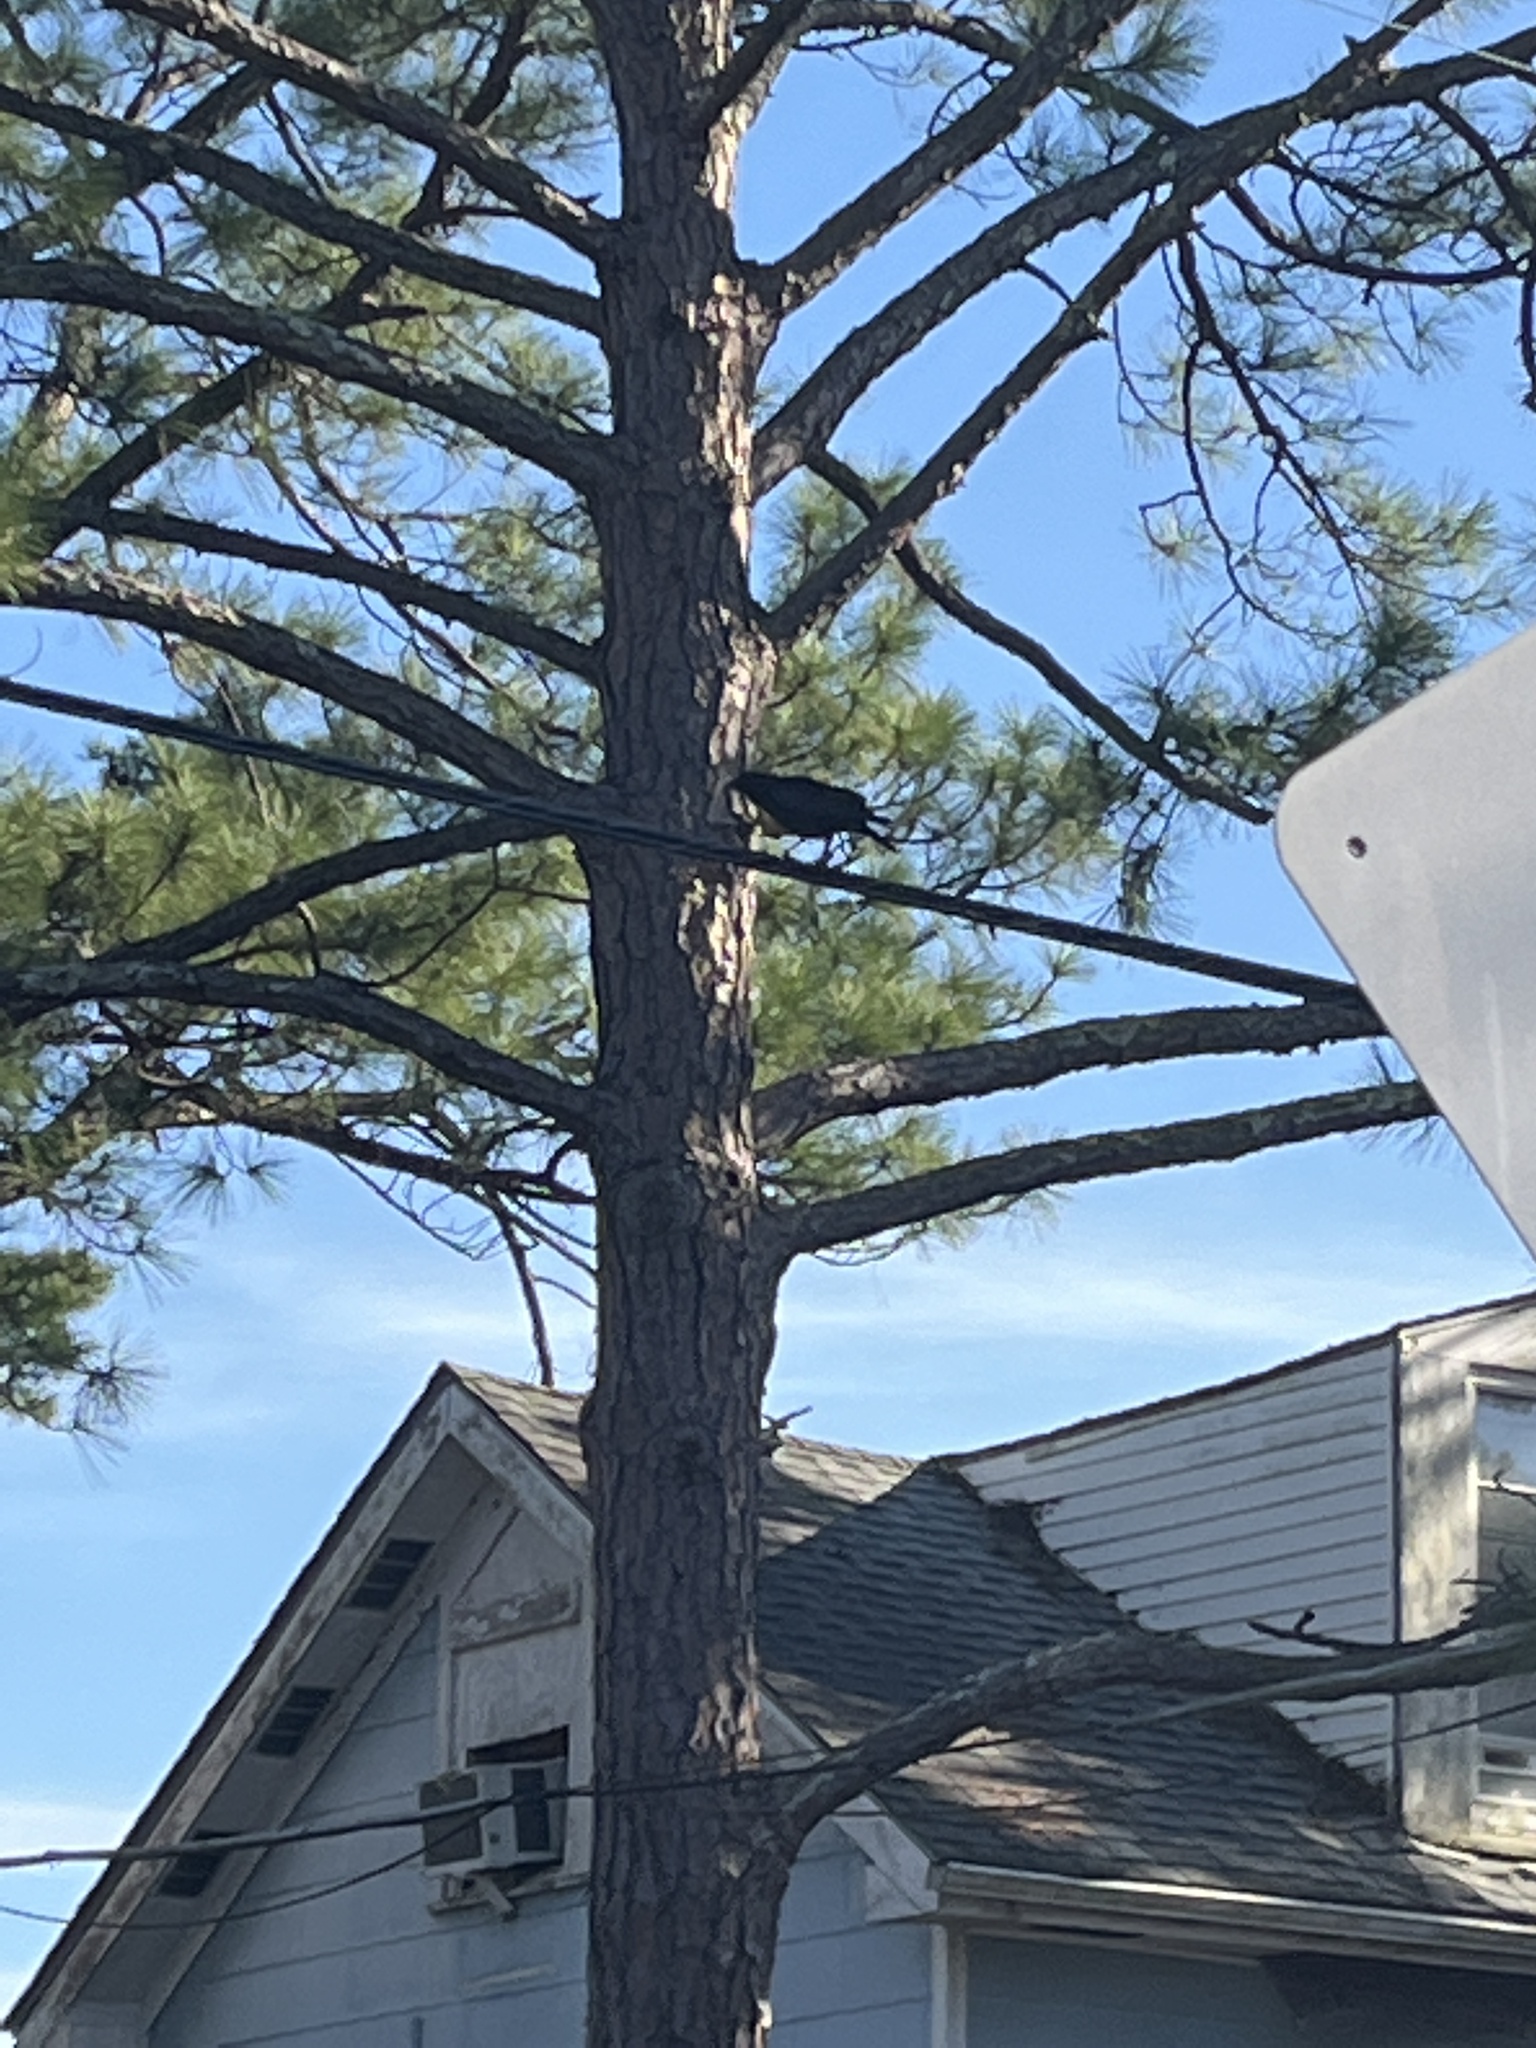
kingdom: Animalia
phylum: Chordata
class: Aves
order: Passeriformes
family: Corvidae
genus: Corvus
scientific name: Corvus brachyrhynchos
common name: American crow
